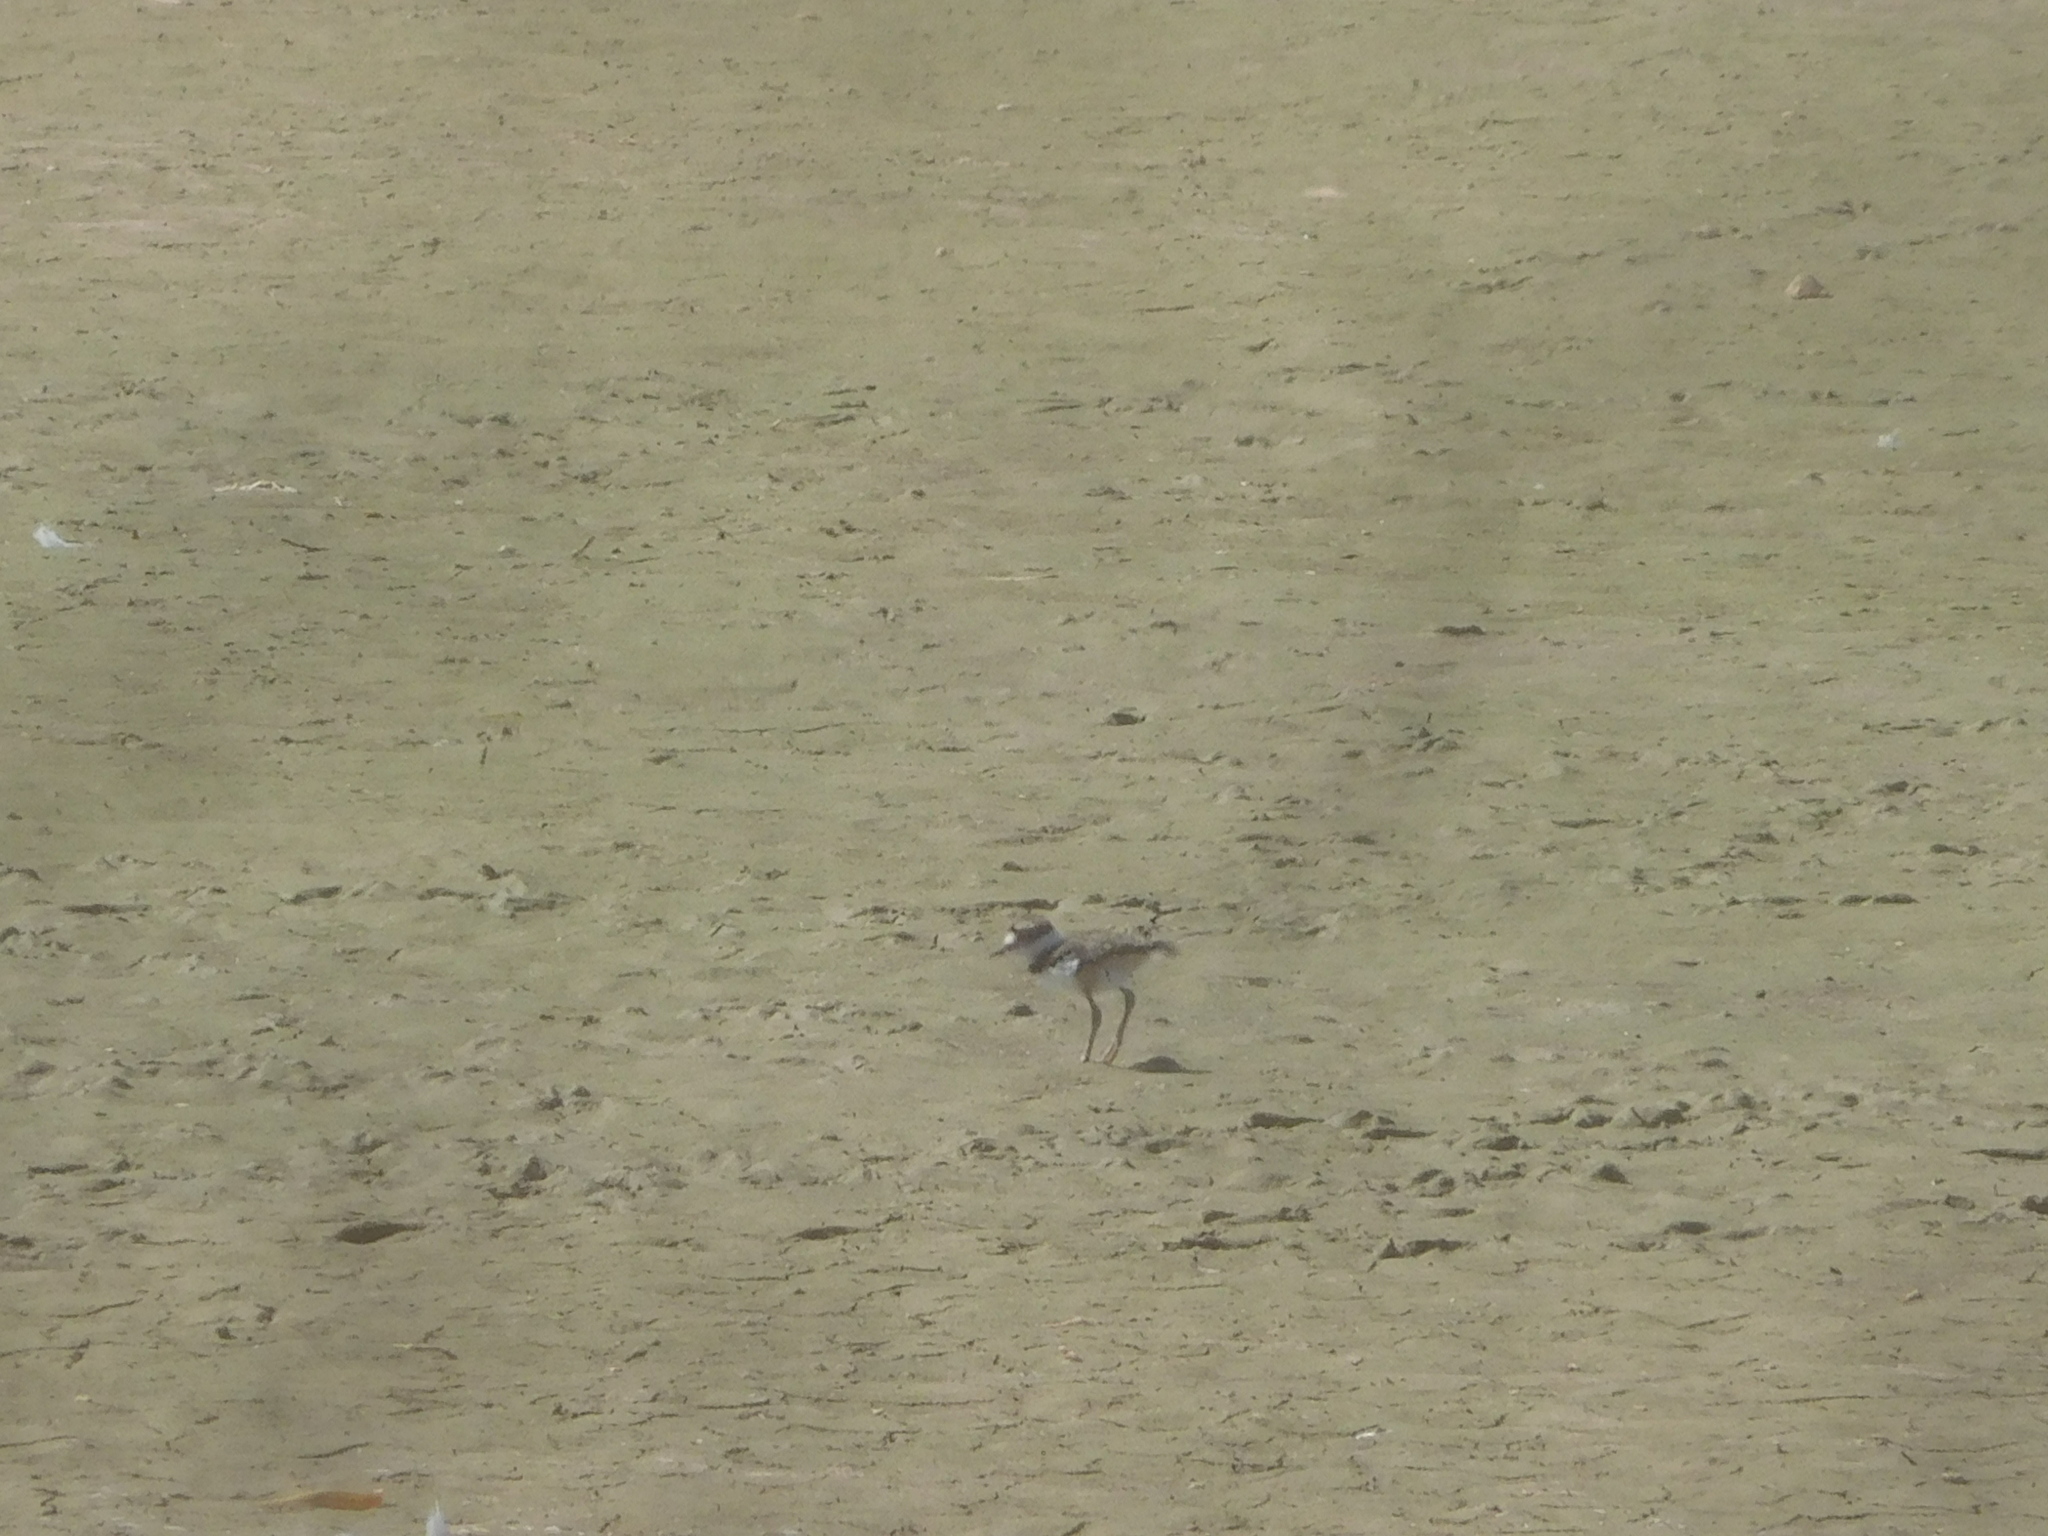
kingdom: Animalia
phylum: Chordata
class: Aves
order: Charadriiformes
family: Charadriidae
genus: Charadrius
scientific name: Charadrius vociferus
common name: Killdeer
